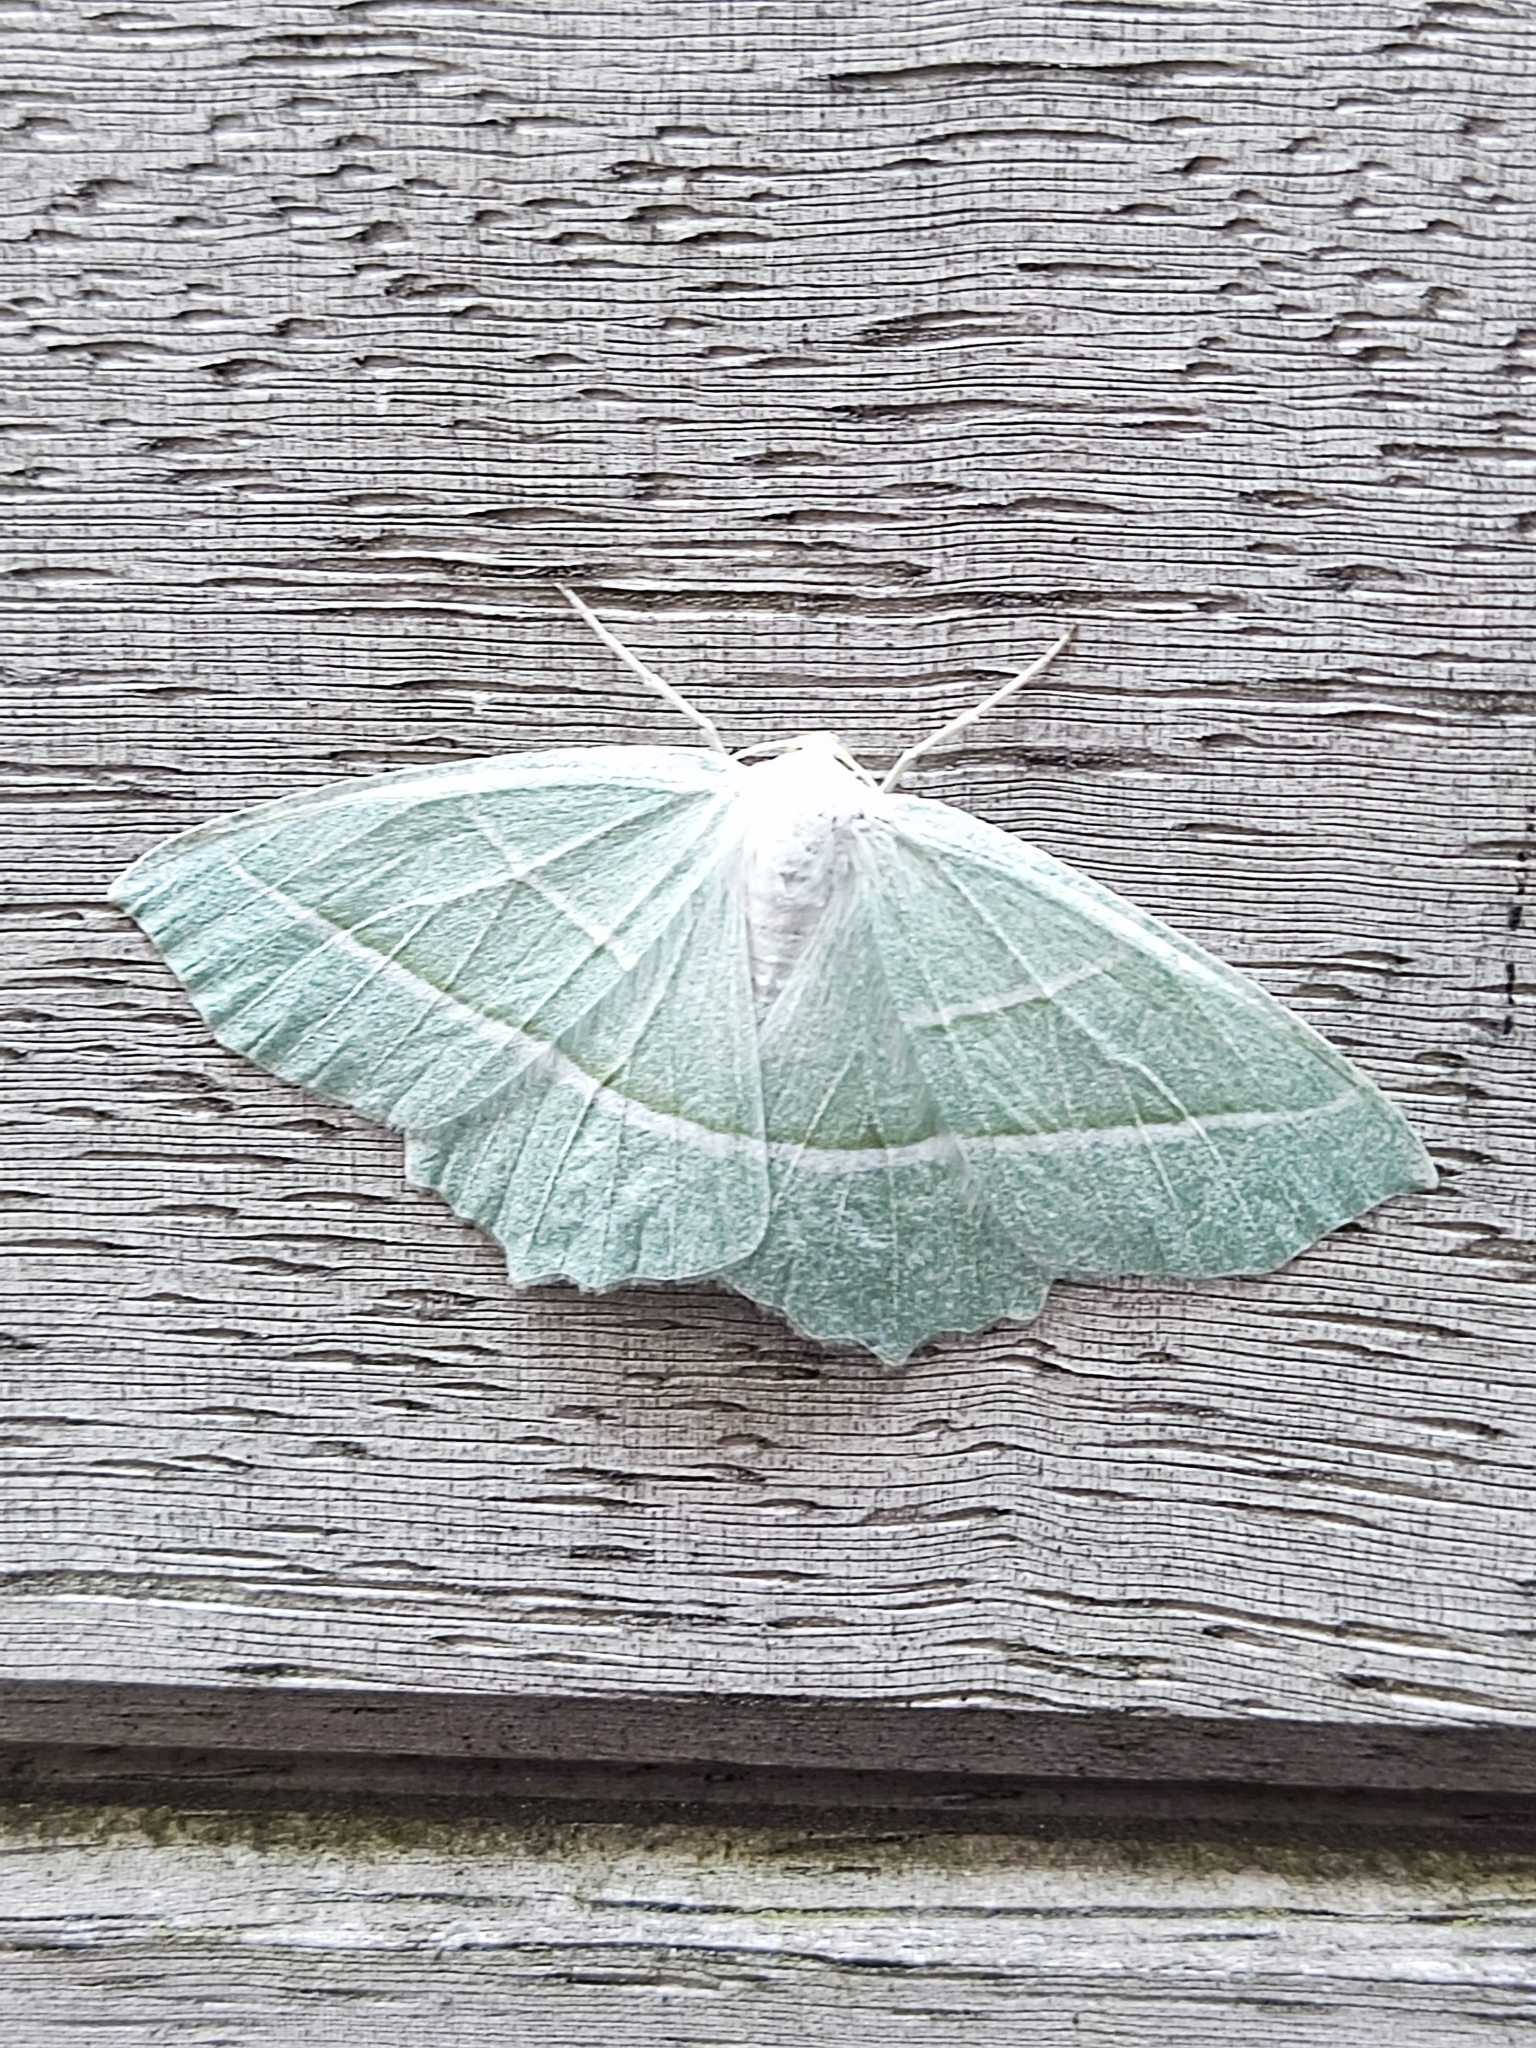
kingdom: Animalia
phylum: Arthropoda
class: Insecta
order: Lepidoptera
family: Geometridae
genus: Campaea
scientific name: Campaea margaritaria
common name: Light emerald
